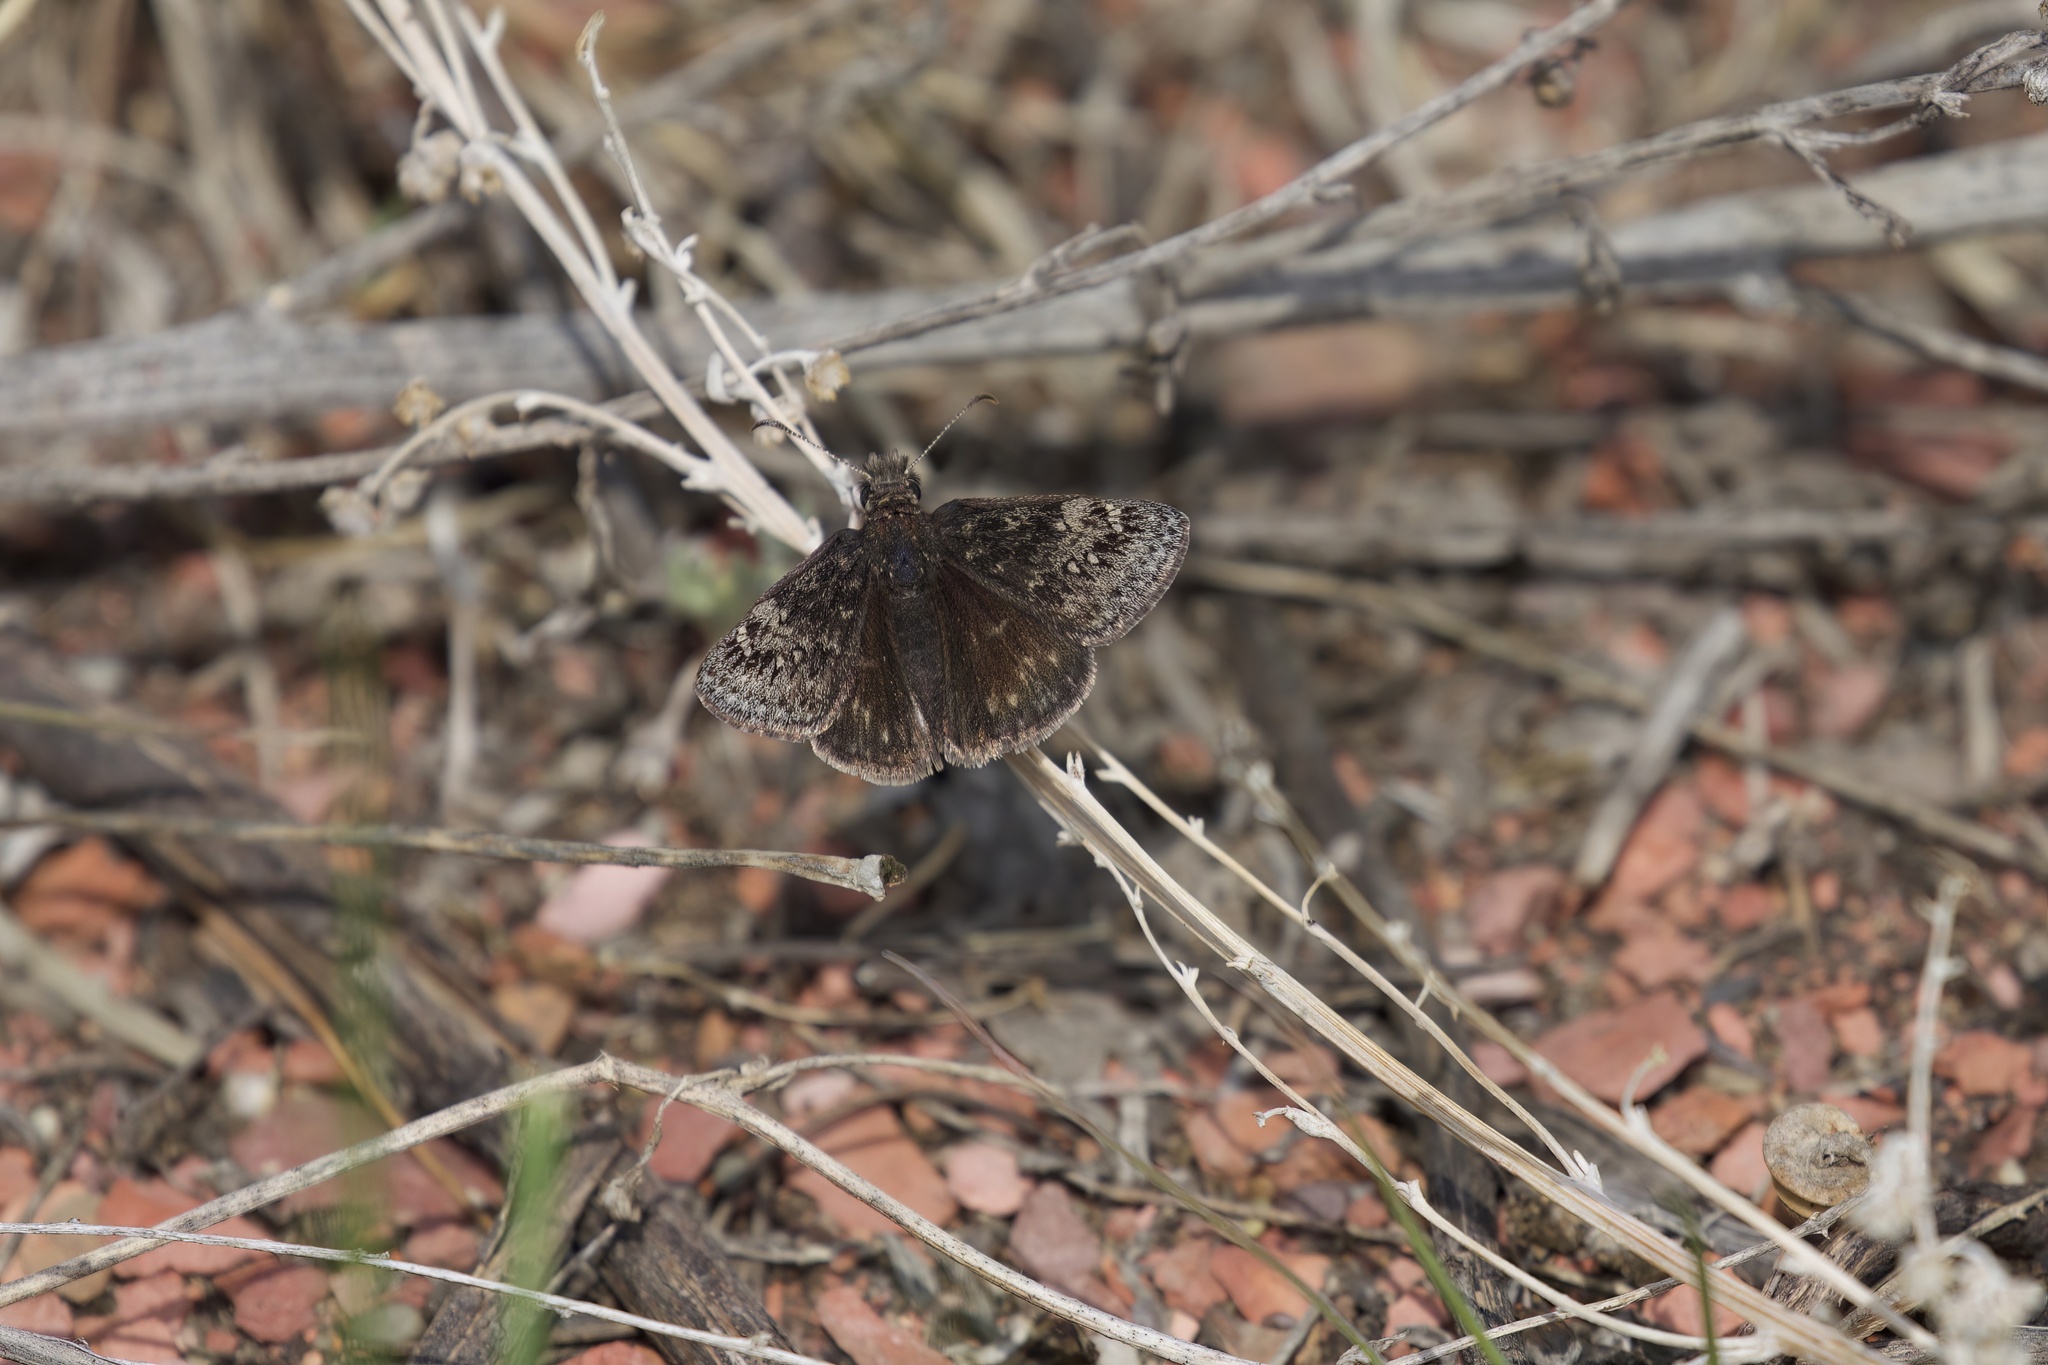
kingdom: Animalia
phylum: Arthropoda
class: Insecta
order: Lepidoptera
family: Hesperiidae
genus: Erynnis
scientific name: Erynnis persius
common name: Persius duskywing
